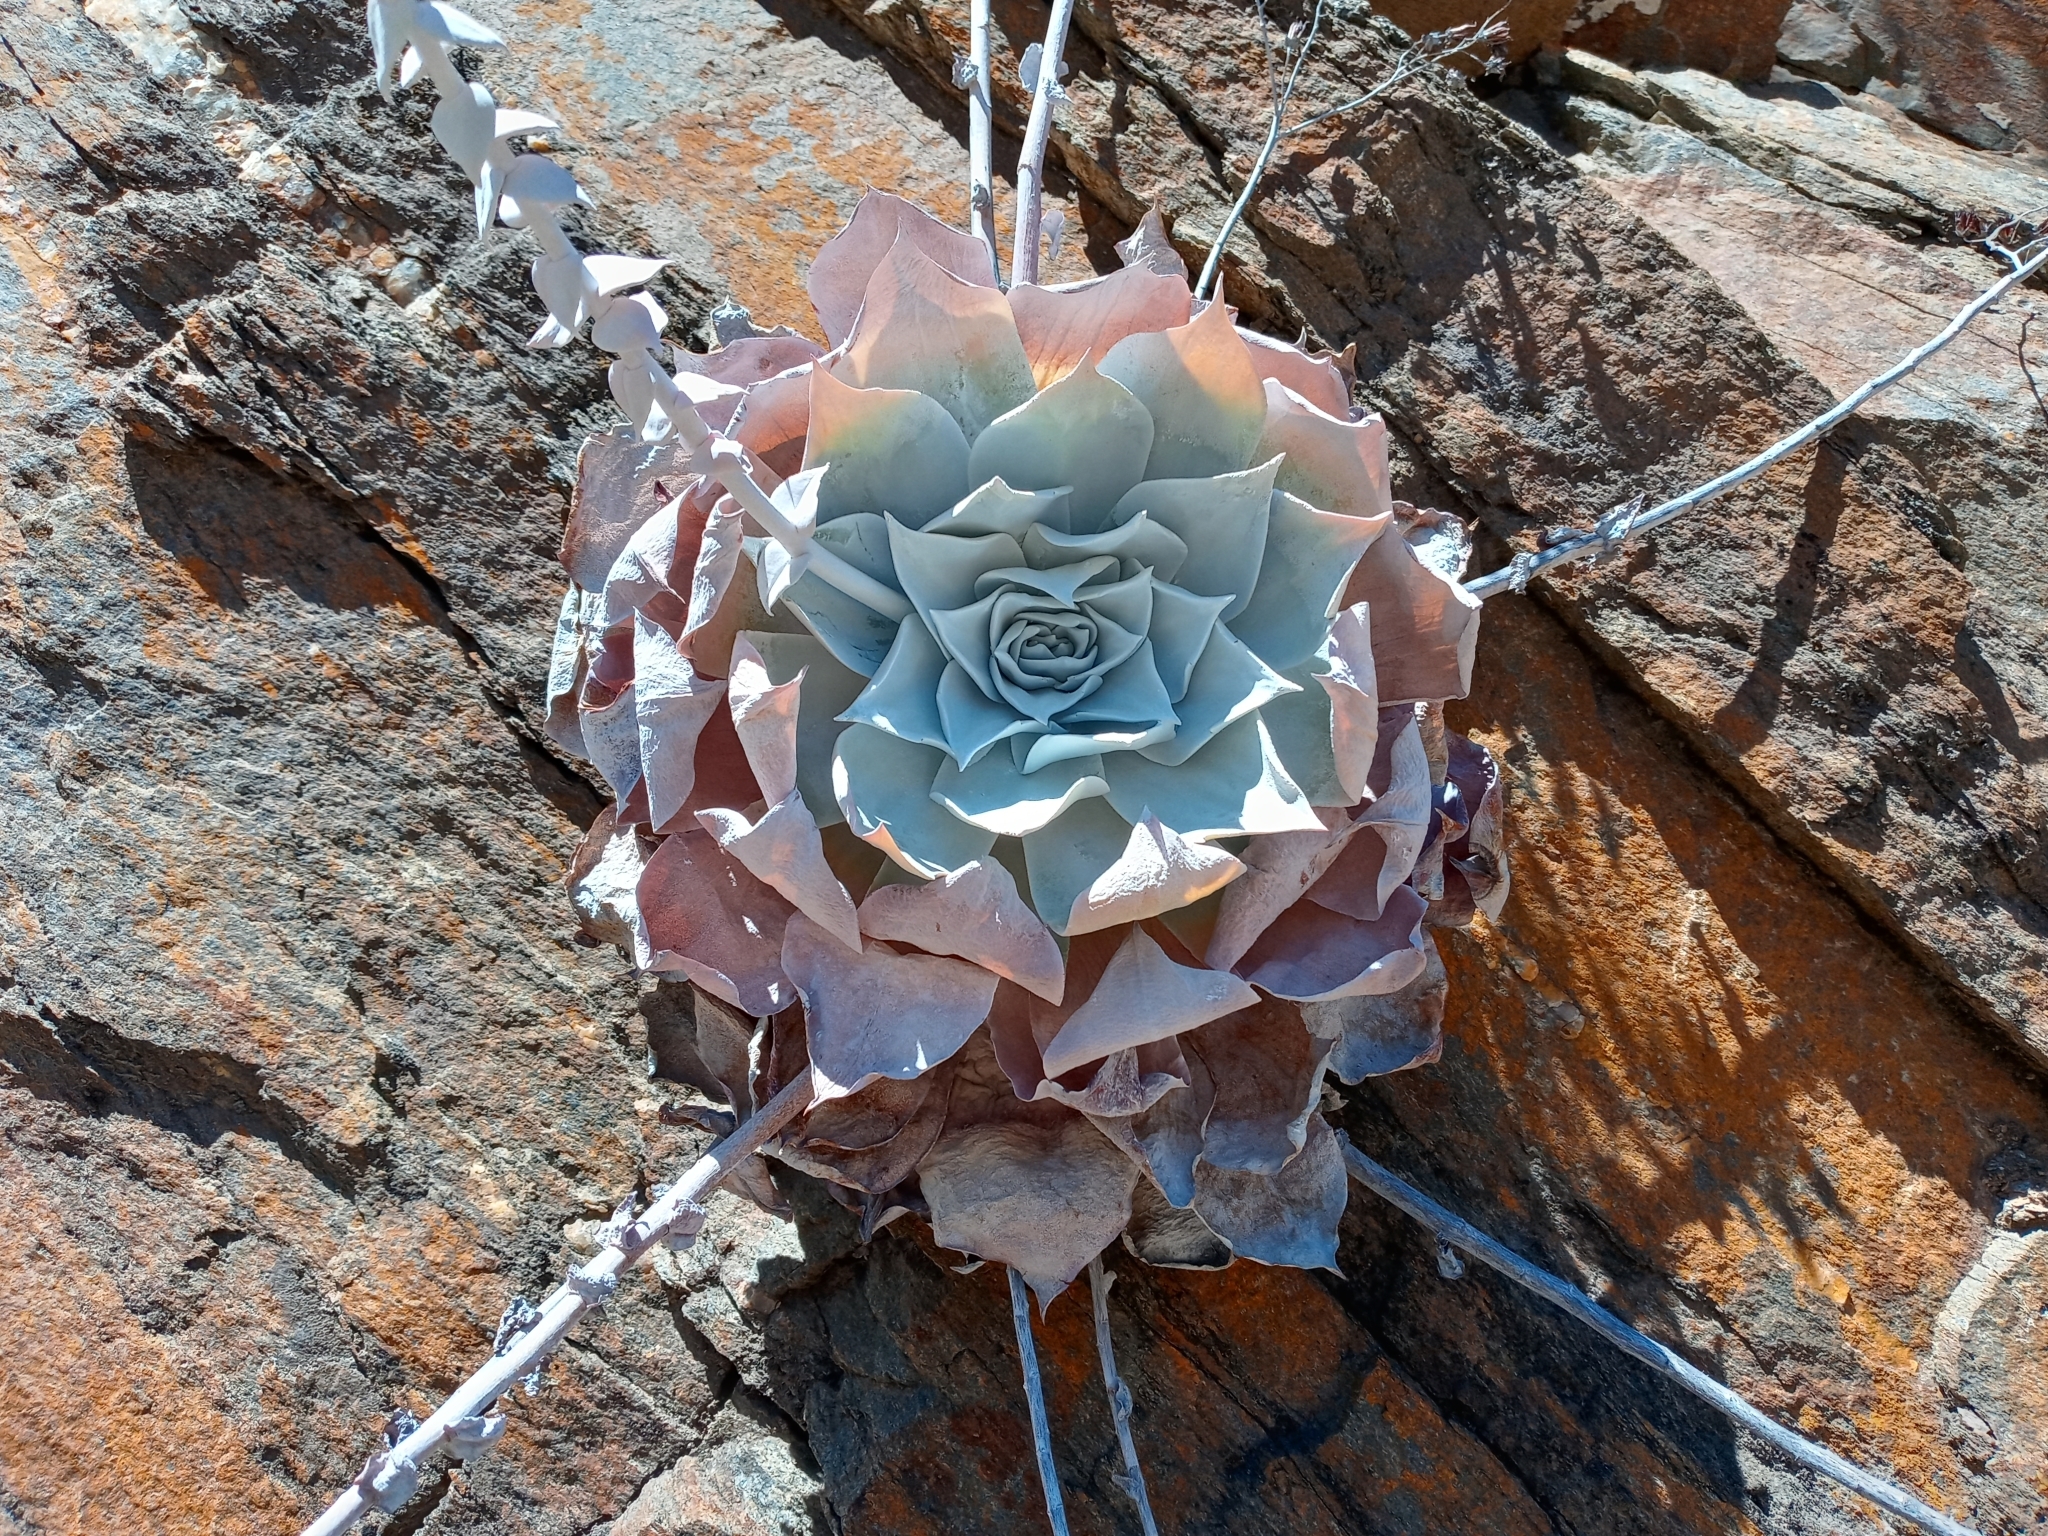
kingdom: Plantae
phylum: Tracheophyta
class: Magnoliopsida
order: Saxifragales
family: Crassulaceae
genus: Dudleya
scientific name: Dudleya pulverulenta
